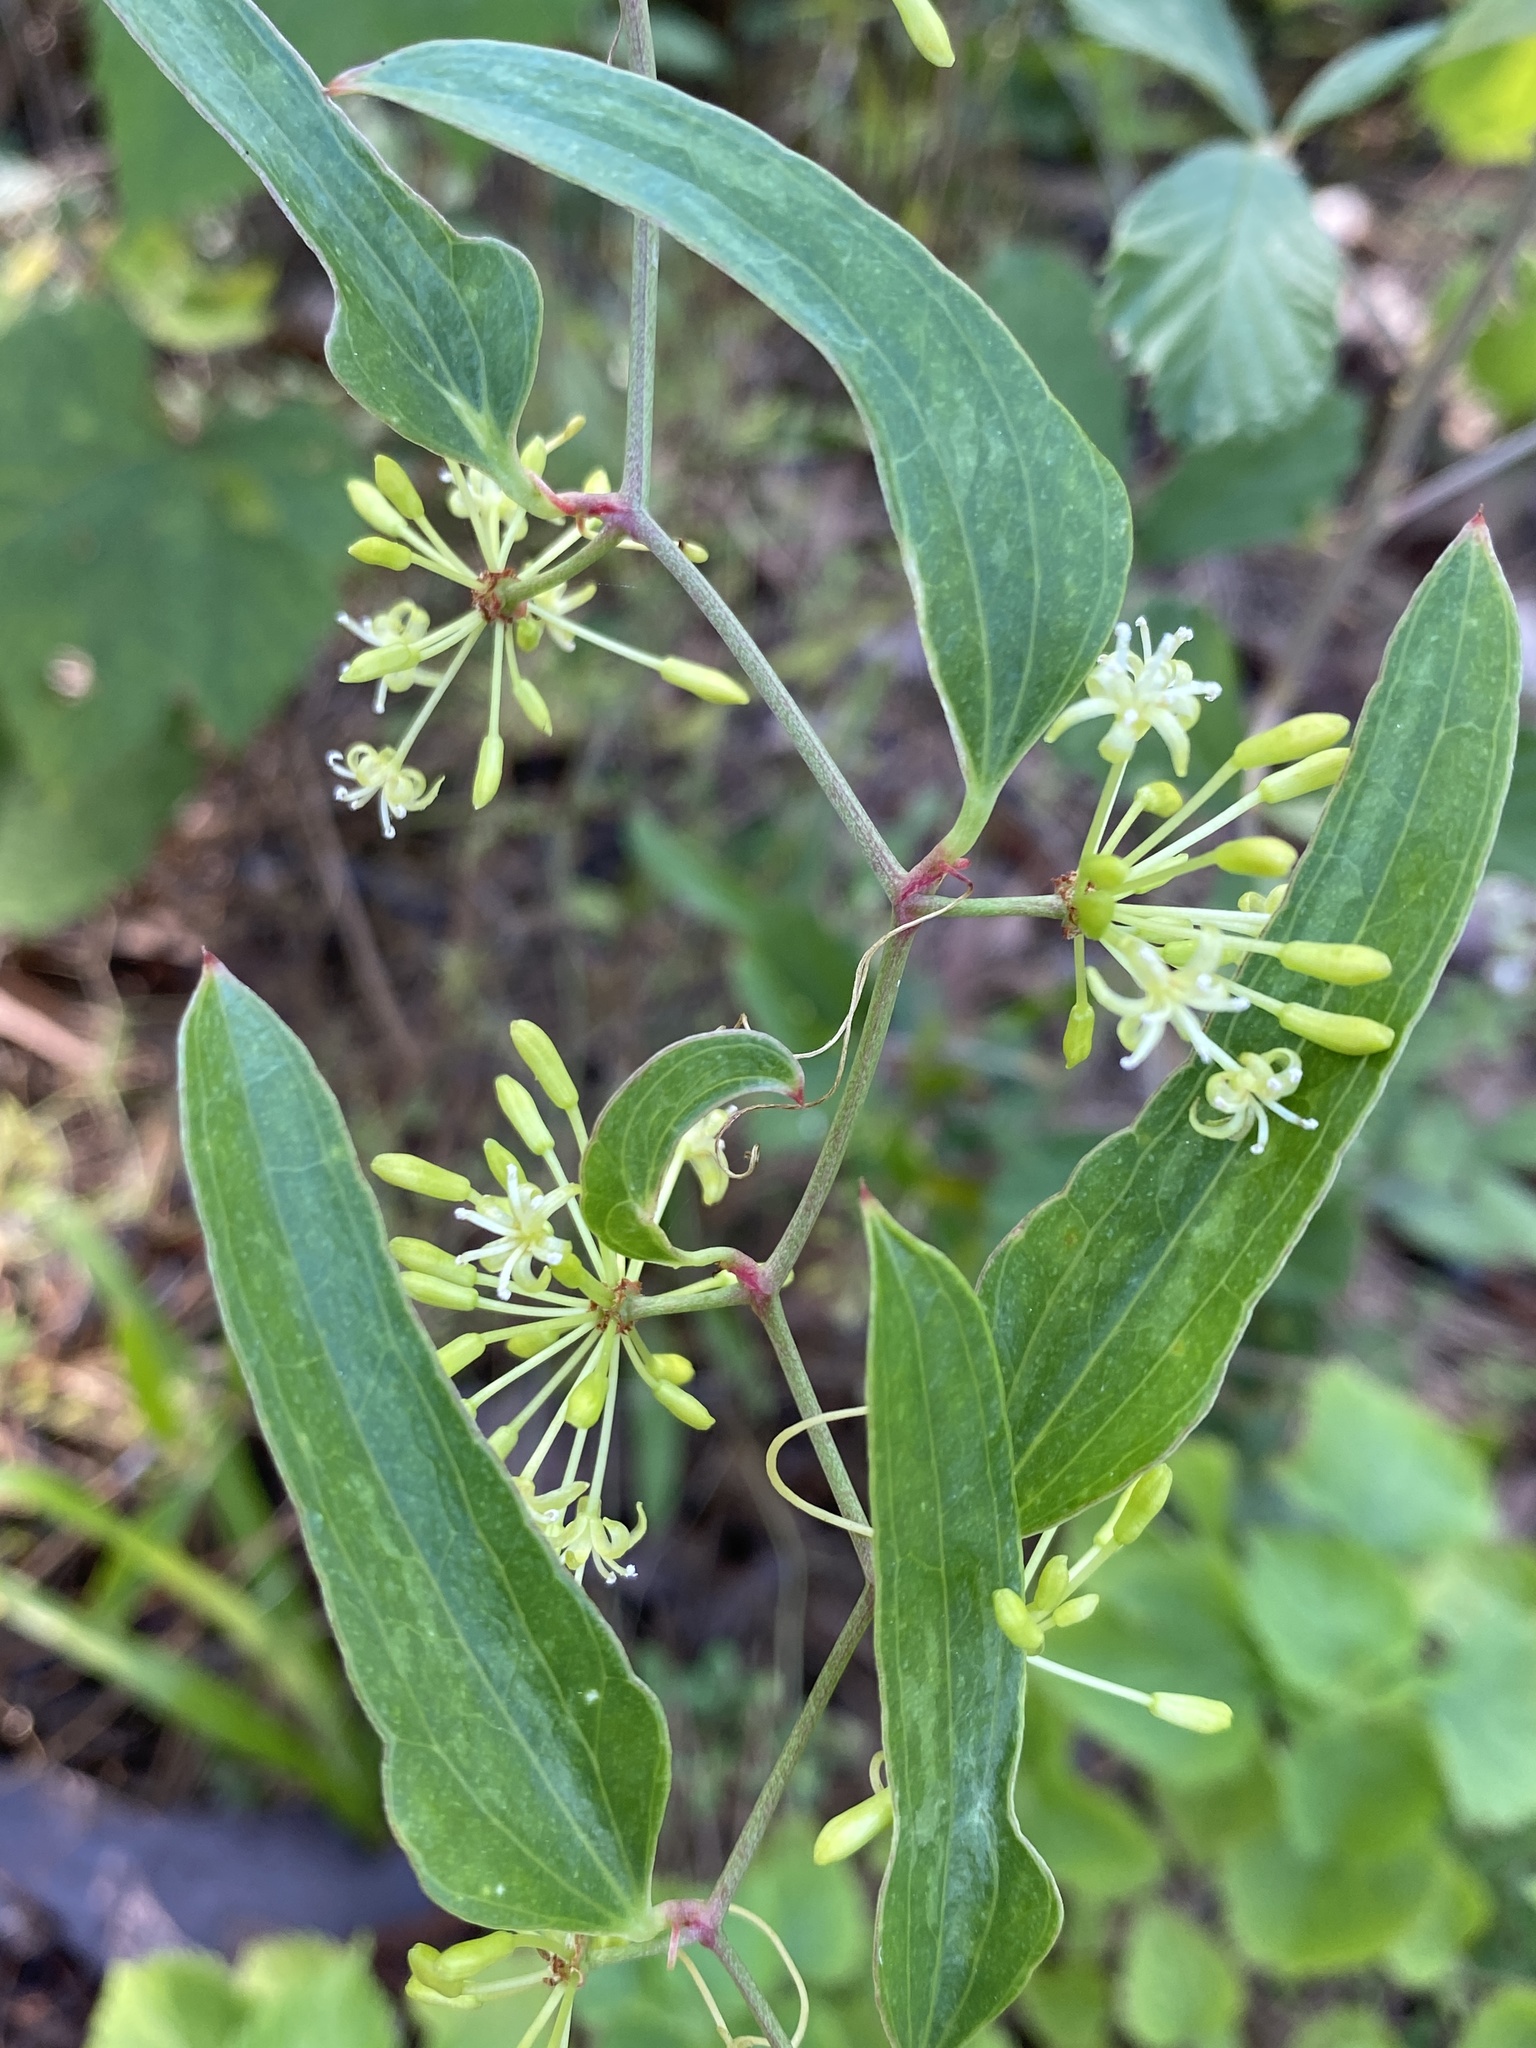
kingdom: Plantae
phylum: Tracheophyta
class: Liliopsida
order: Liliales
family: Smilacaceae
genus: Smilax
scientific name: Smilax auriculata
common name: Wild bamboo
